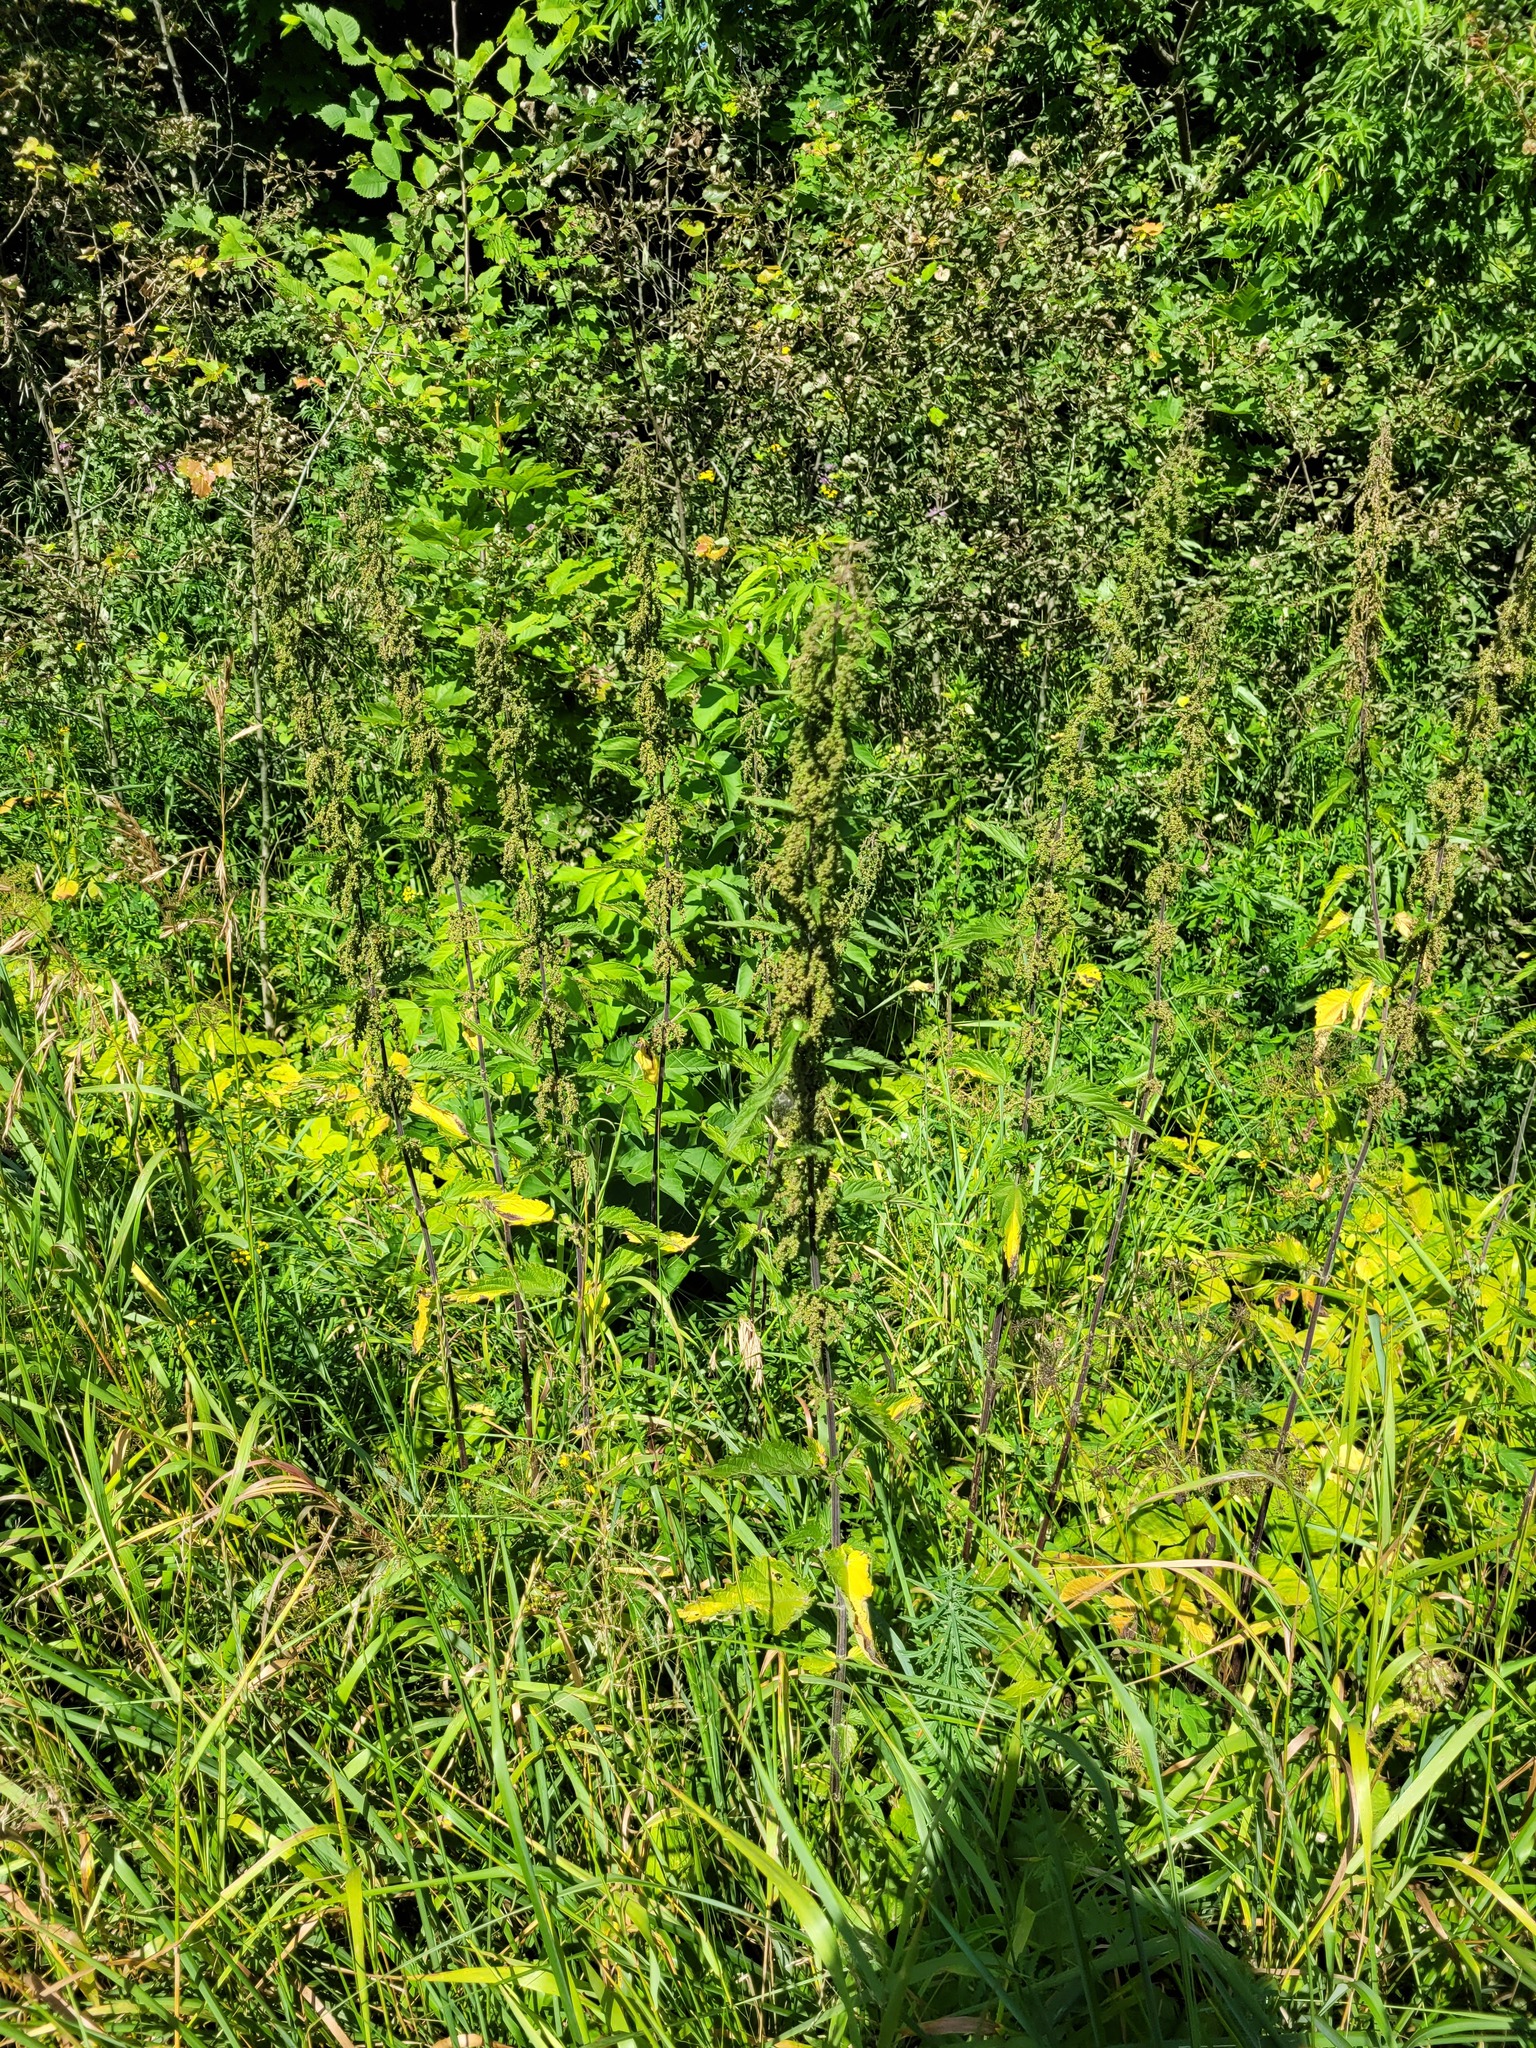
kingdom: Plantae
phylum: Tracheophyta
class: Magnoliopsida
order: Rosales
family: Urticaceae
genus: Urtica
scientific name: Urtica dioica
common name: Common nettle
